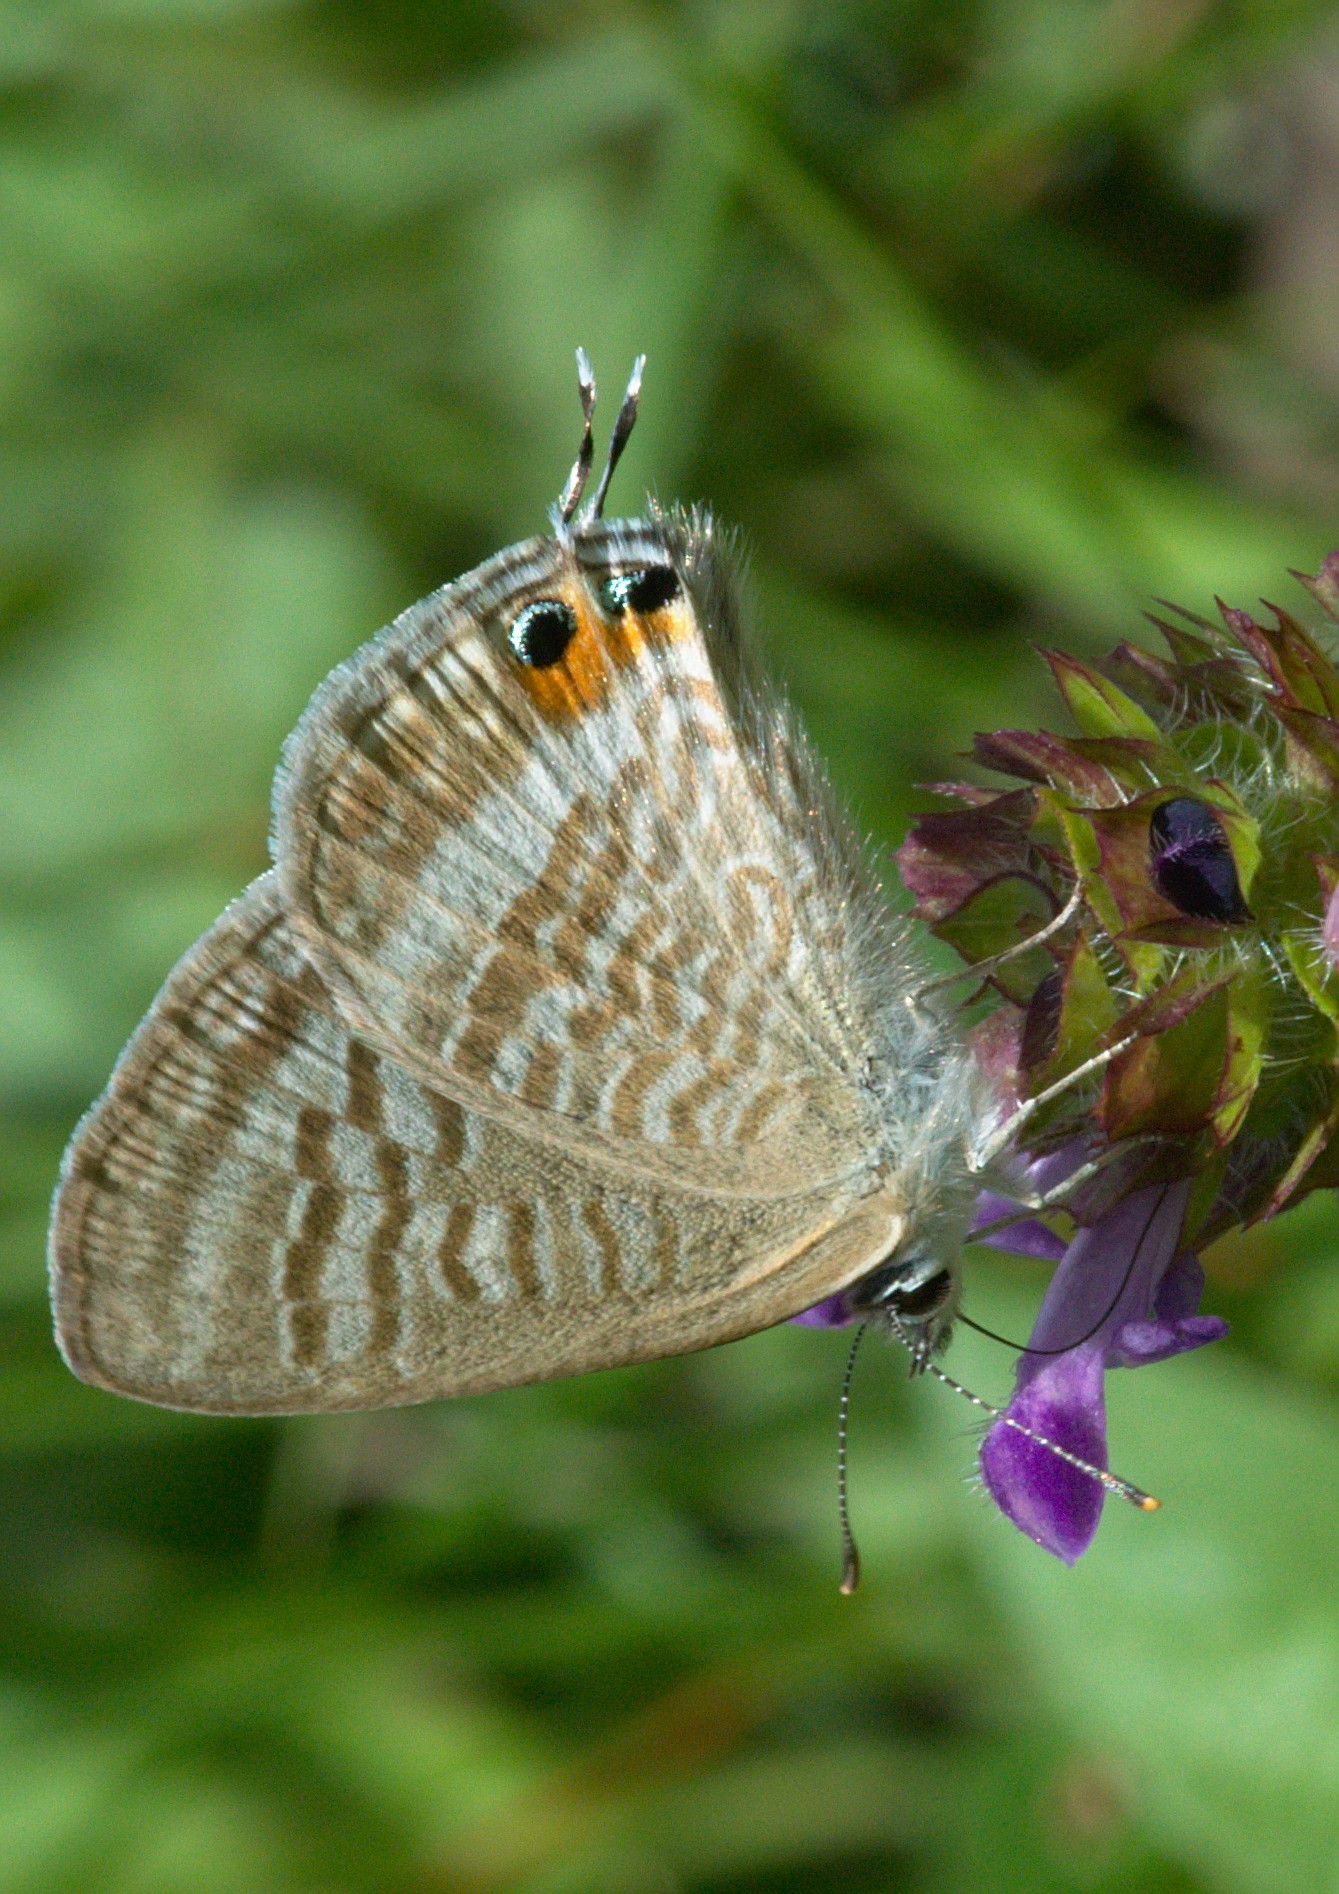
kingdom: Animalia
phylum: Arthropoda
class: Insecta
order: Lepidoptera
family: Lycaenidae
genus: Lampides
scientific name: Lampides boeticus
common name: Long-tailed blue
